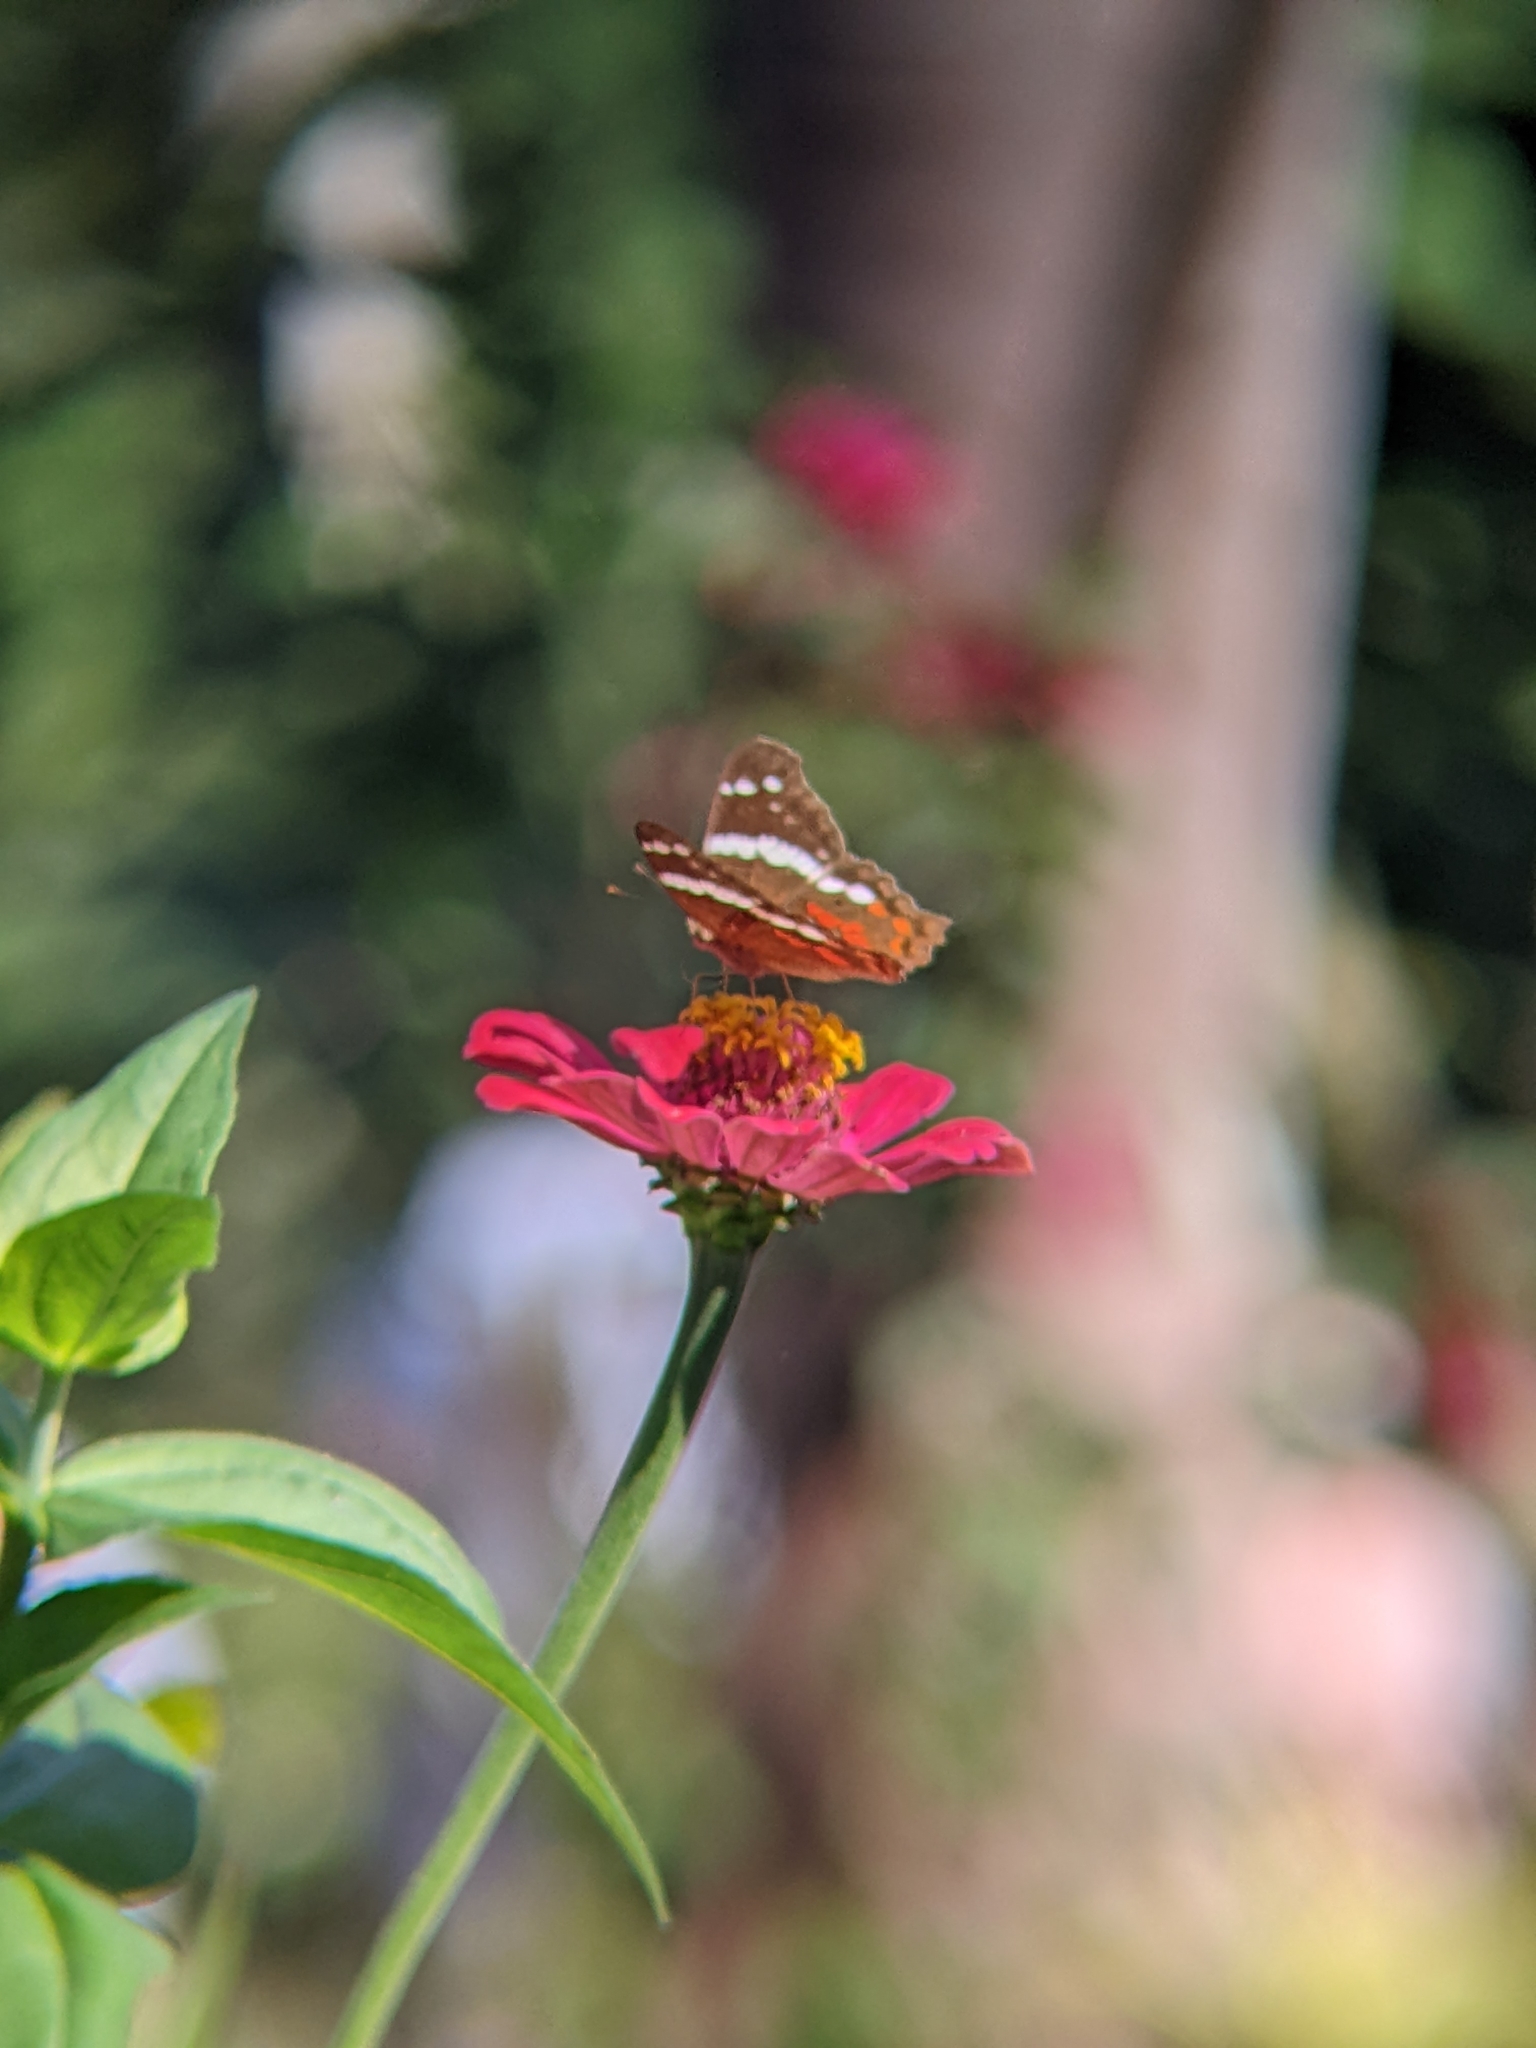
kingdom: Animalia
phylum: Arthropoda
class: Insecta
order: Lepidoptera
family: Nymphalidae
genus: Anartia
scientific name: Anartia fatima
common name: Banded peacock
